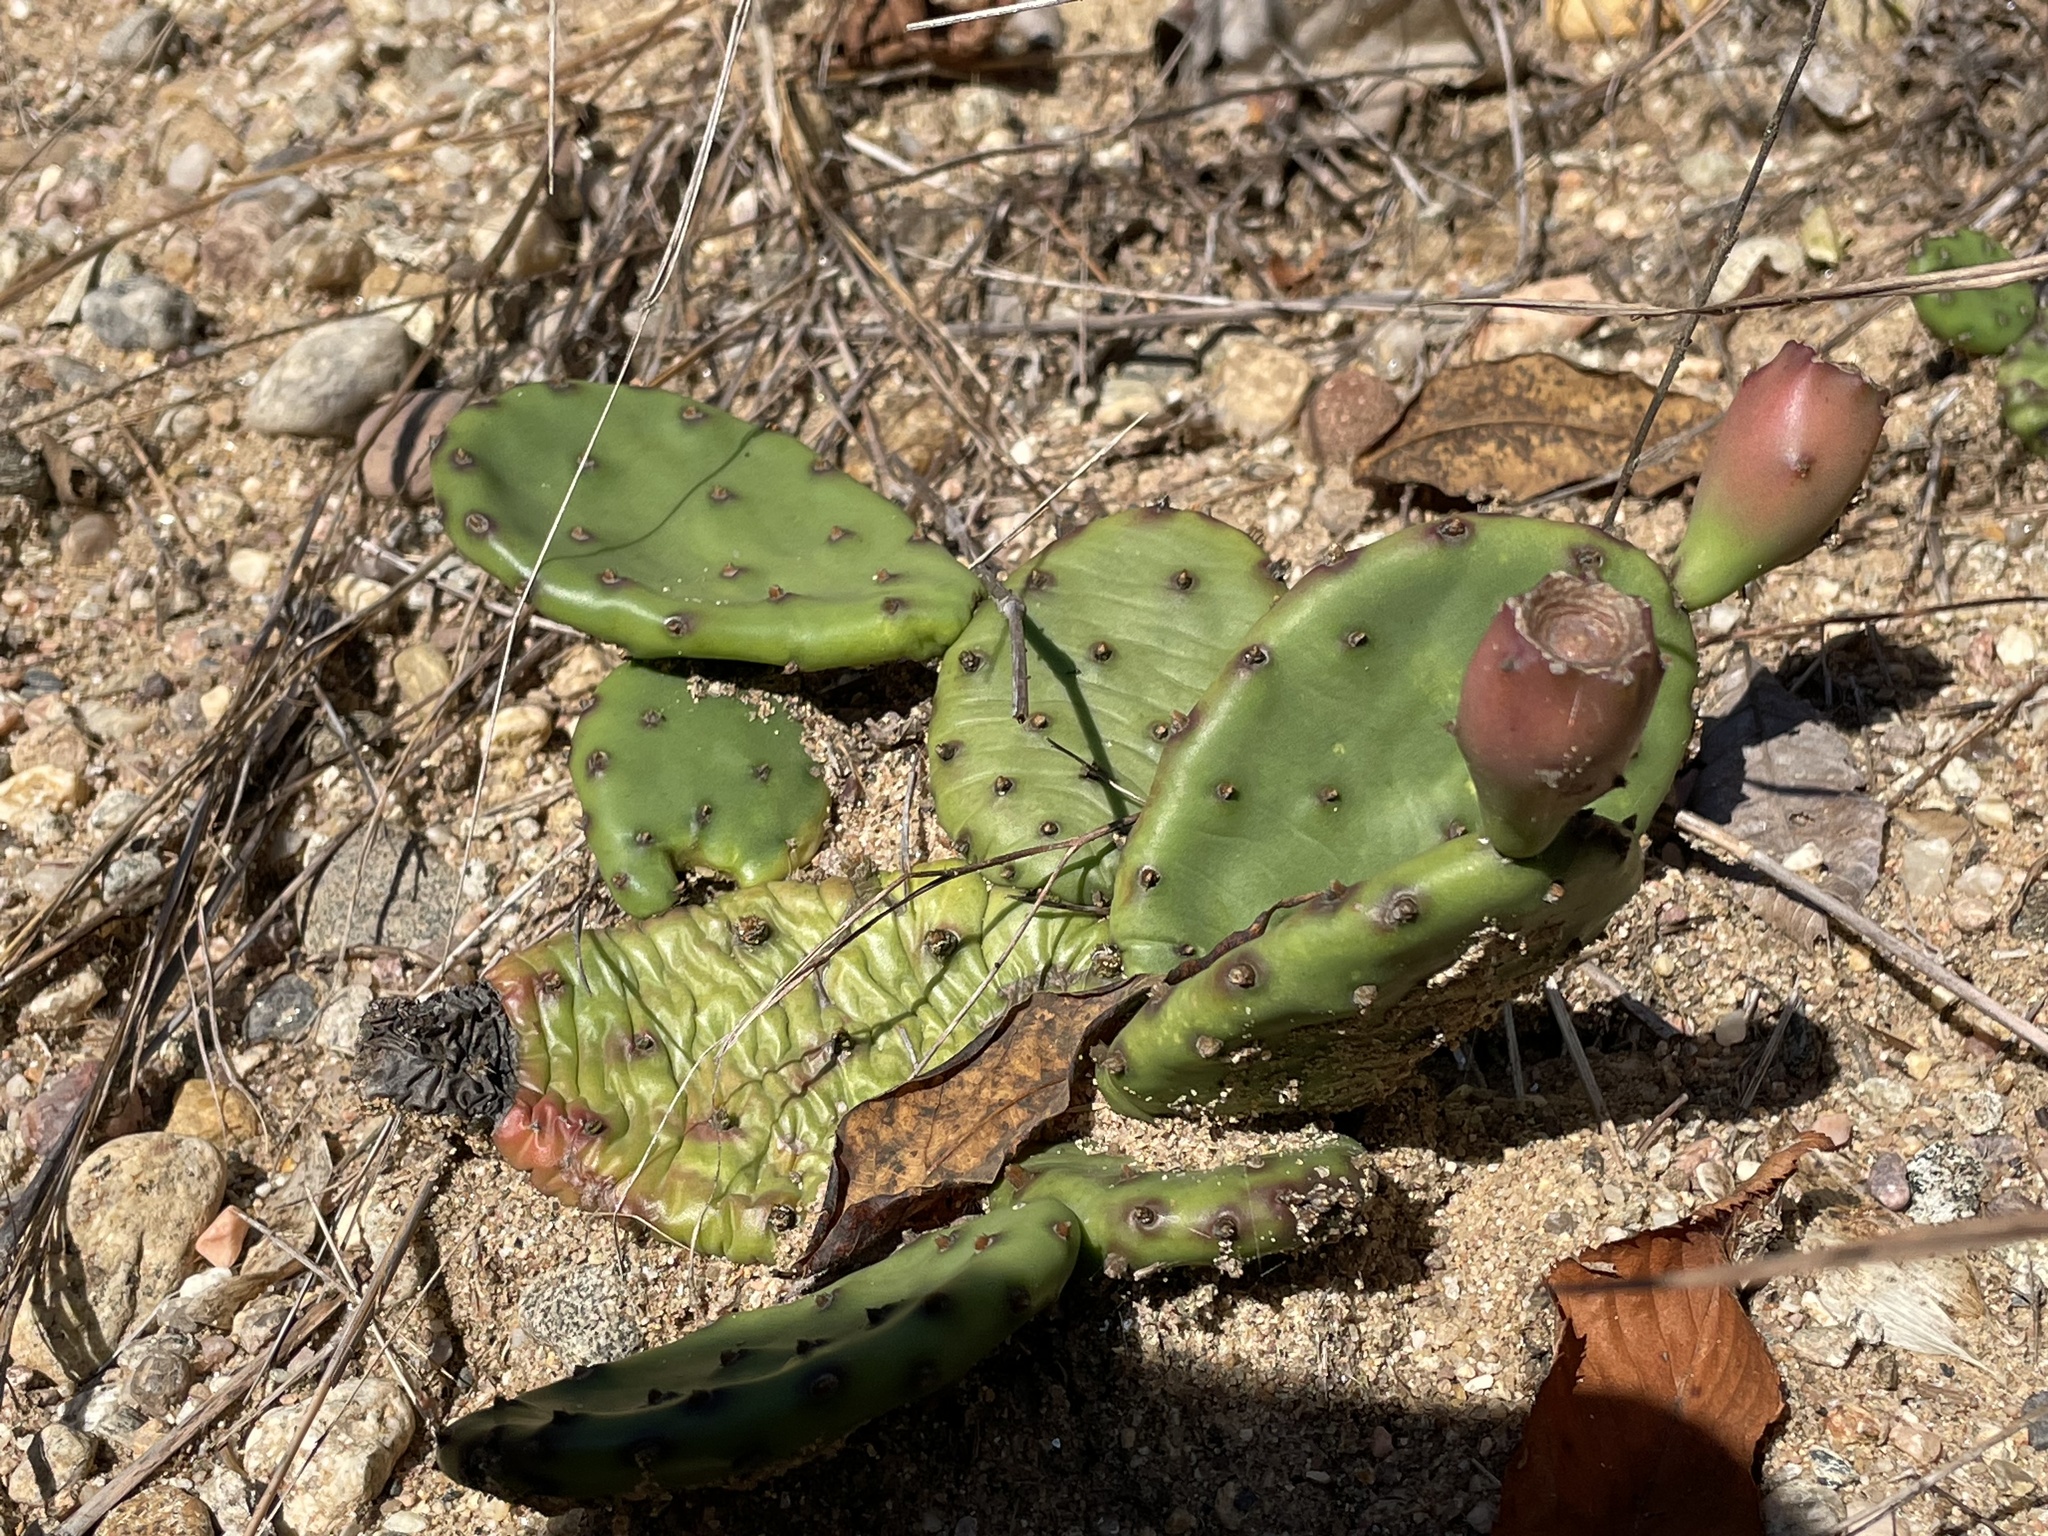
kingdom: Plantae
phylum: Tracheophyta
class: Magnoliopsida
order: Caryophyllales
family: Cactaceae
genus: Opuntia
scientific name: Opuntia humifusa
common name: Eastern prickly-pear
